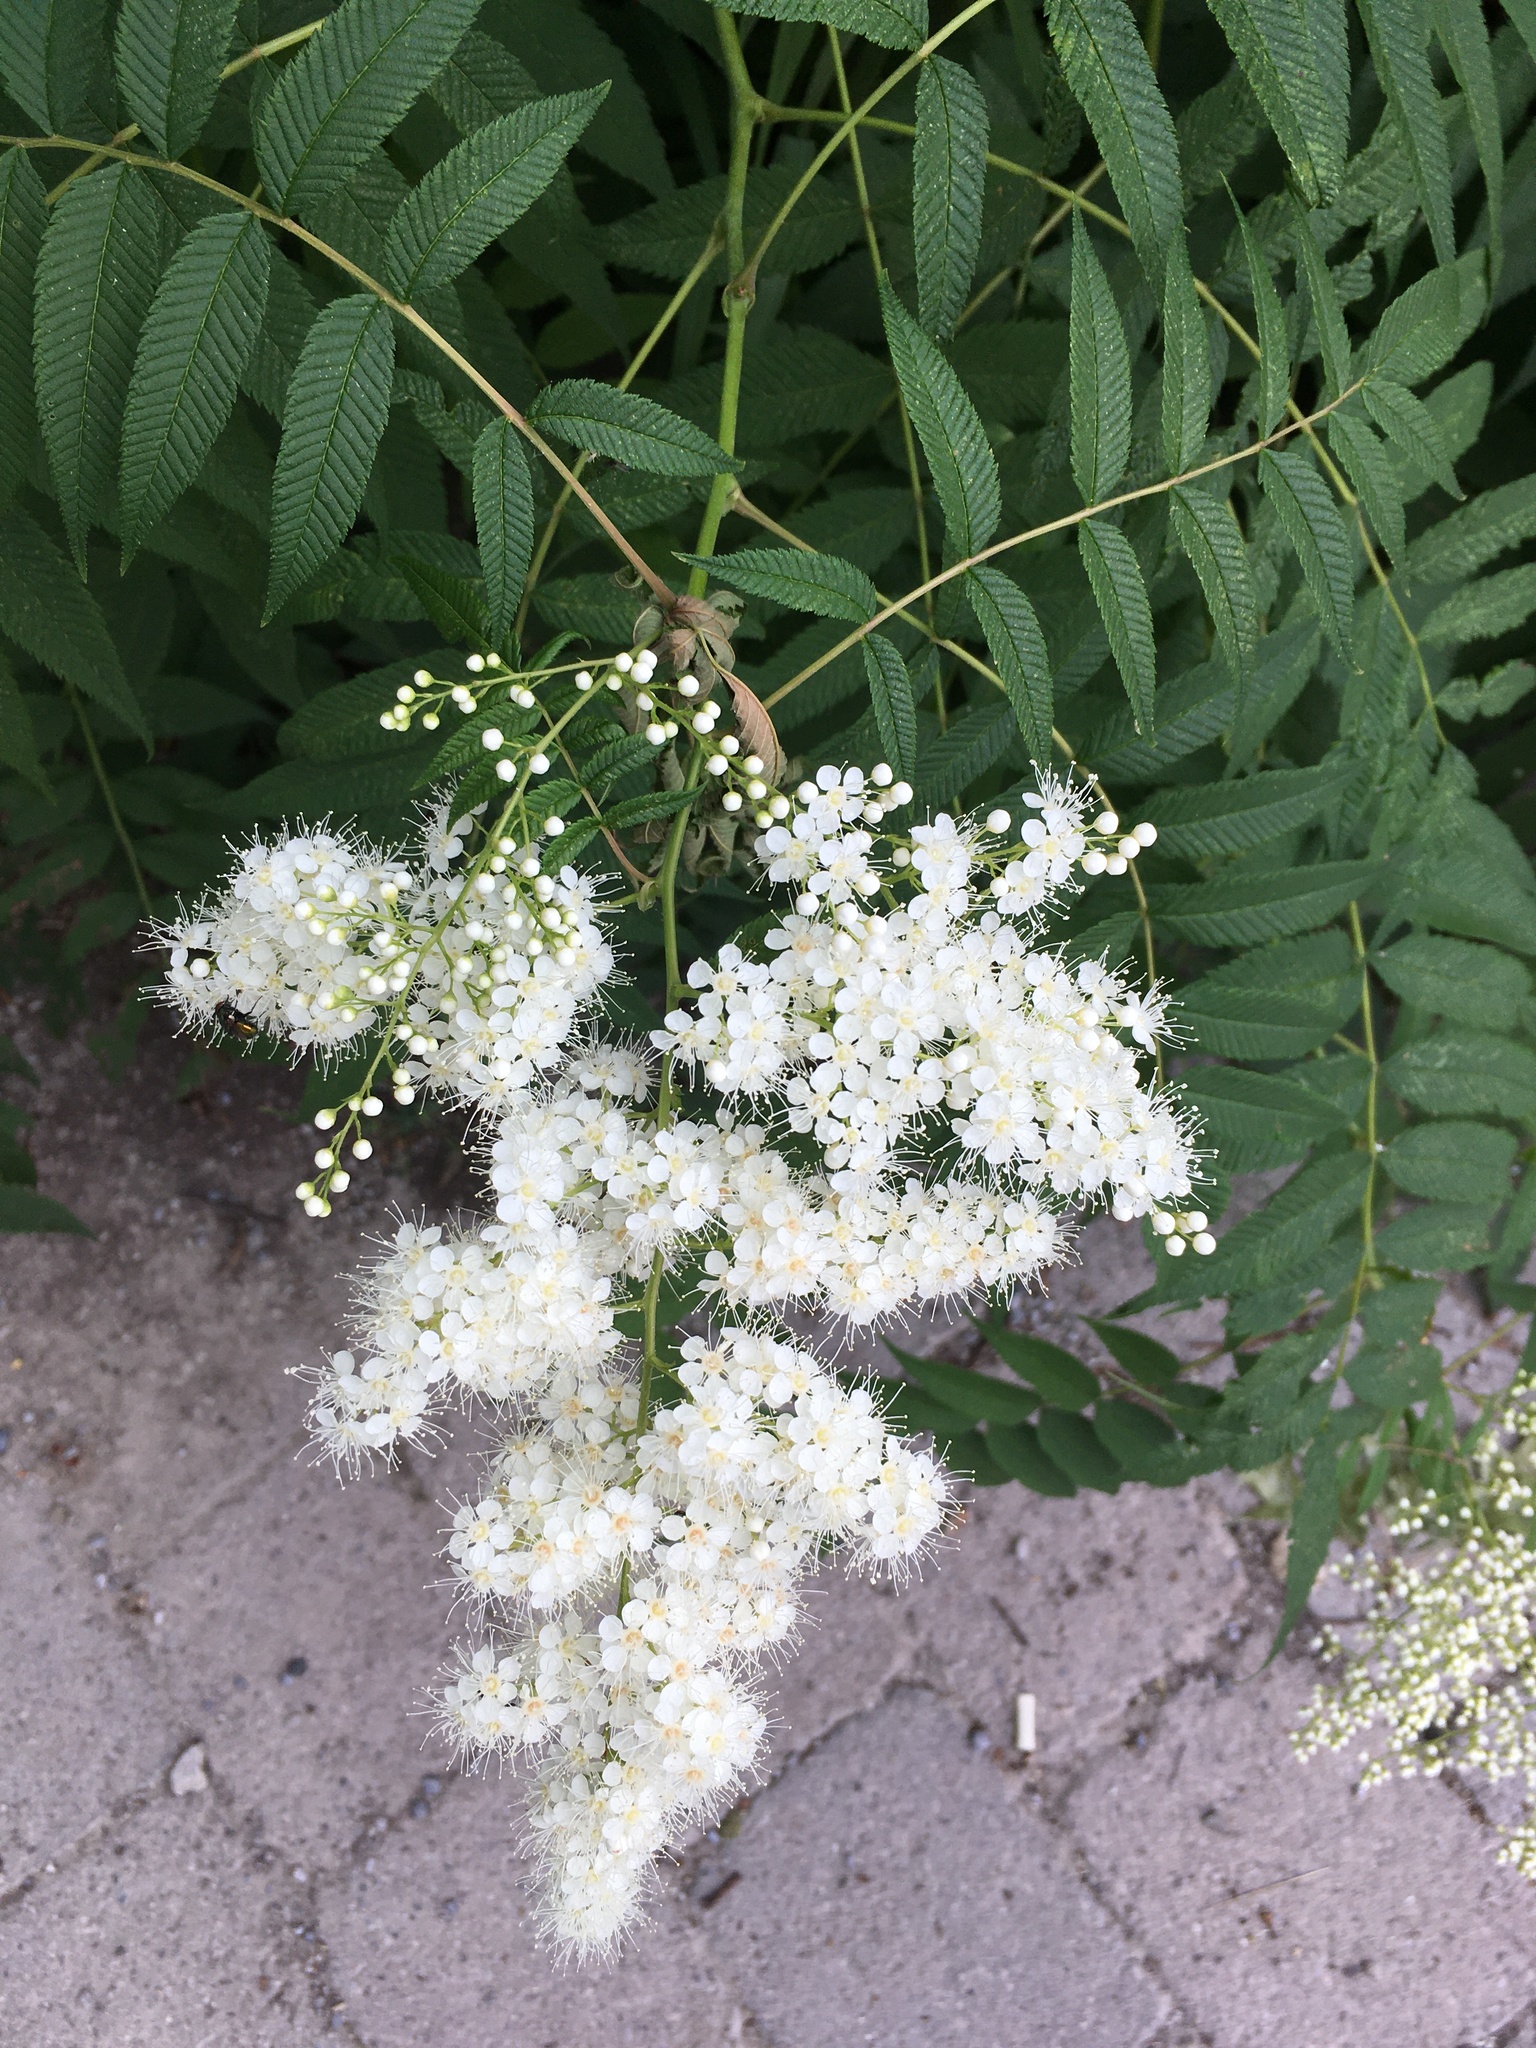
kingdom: Plantae
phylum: Tracheophyta
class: Magnoliopsida
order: Rosales
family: Rosaceae
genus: Sorbaria
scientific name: Sorbaria sorbifolia
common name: False spiraea
